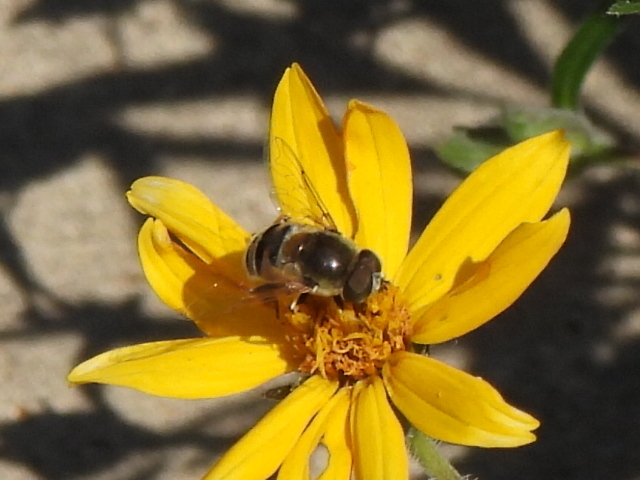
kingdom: Animalia
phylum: Arthropoda
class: Insecta
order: Diptera
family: Syrphidae
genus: Eristalis
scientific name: Eristalis stipator
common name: Yellow-shouldered drone fly
